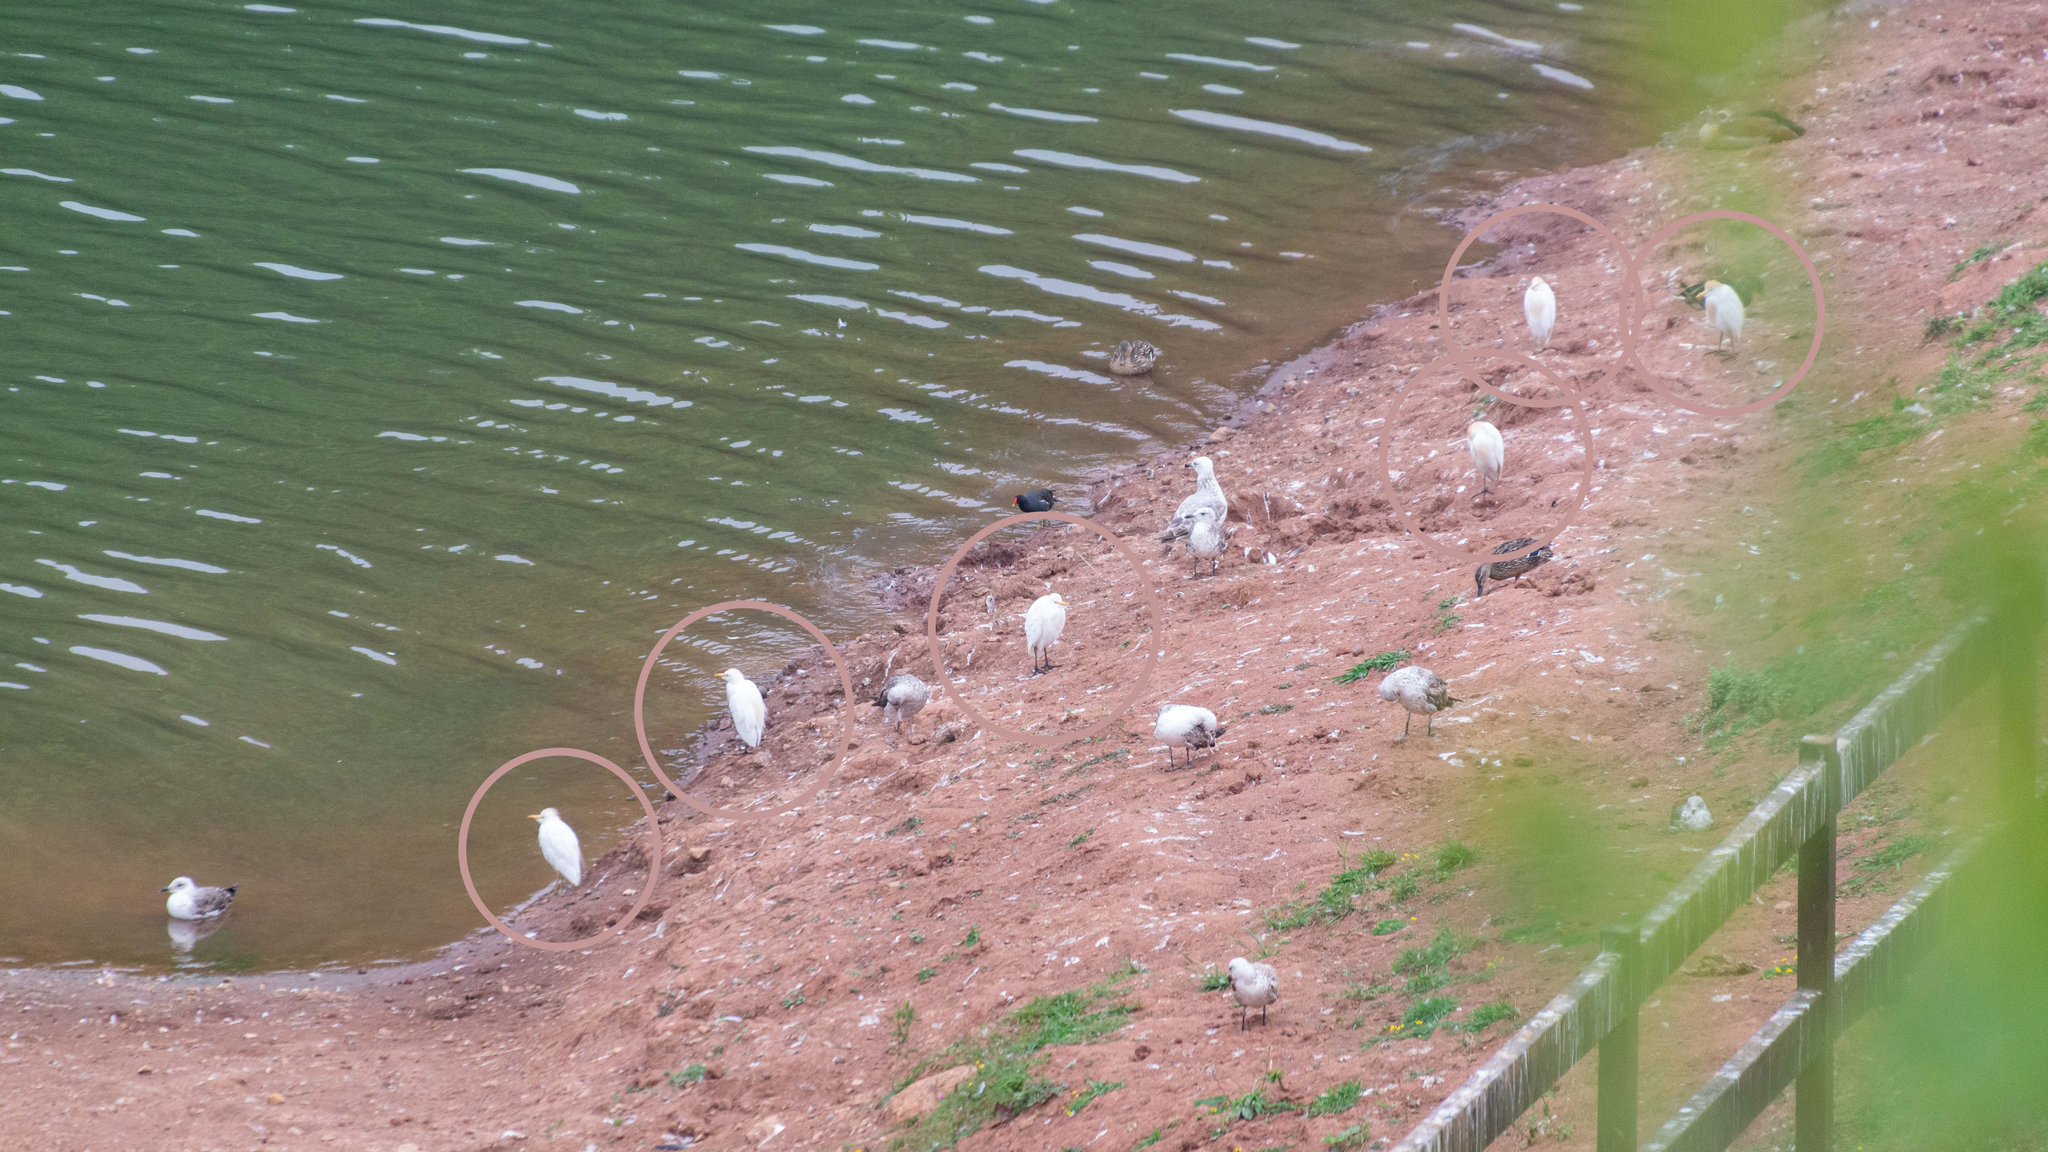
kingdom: Animalia
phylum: Chordata
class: Aves
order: Pelecaniformes
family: Ardeidae
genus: Bubulcus
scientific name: Bubulcus ibis
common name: Cattle egret
